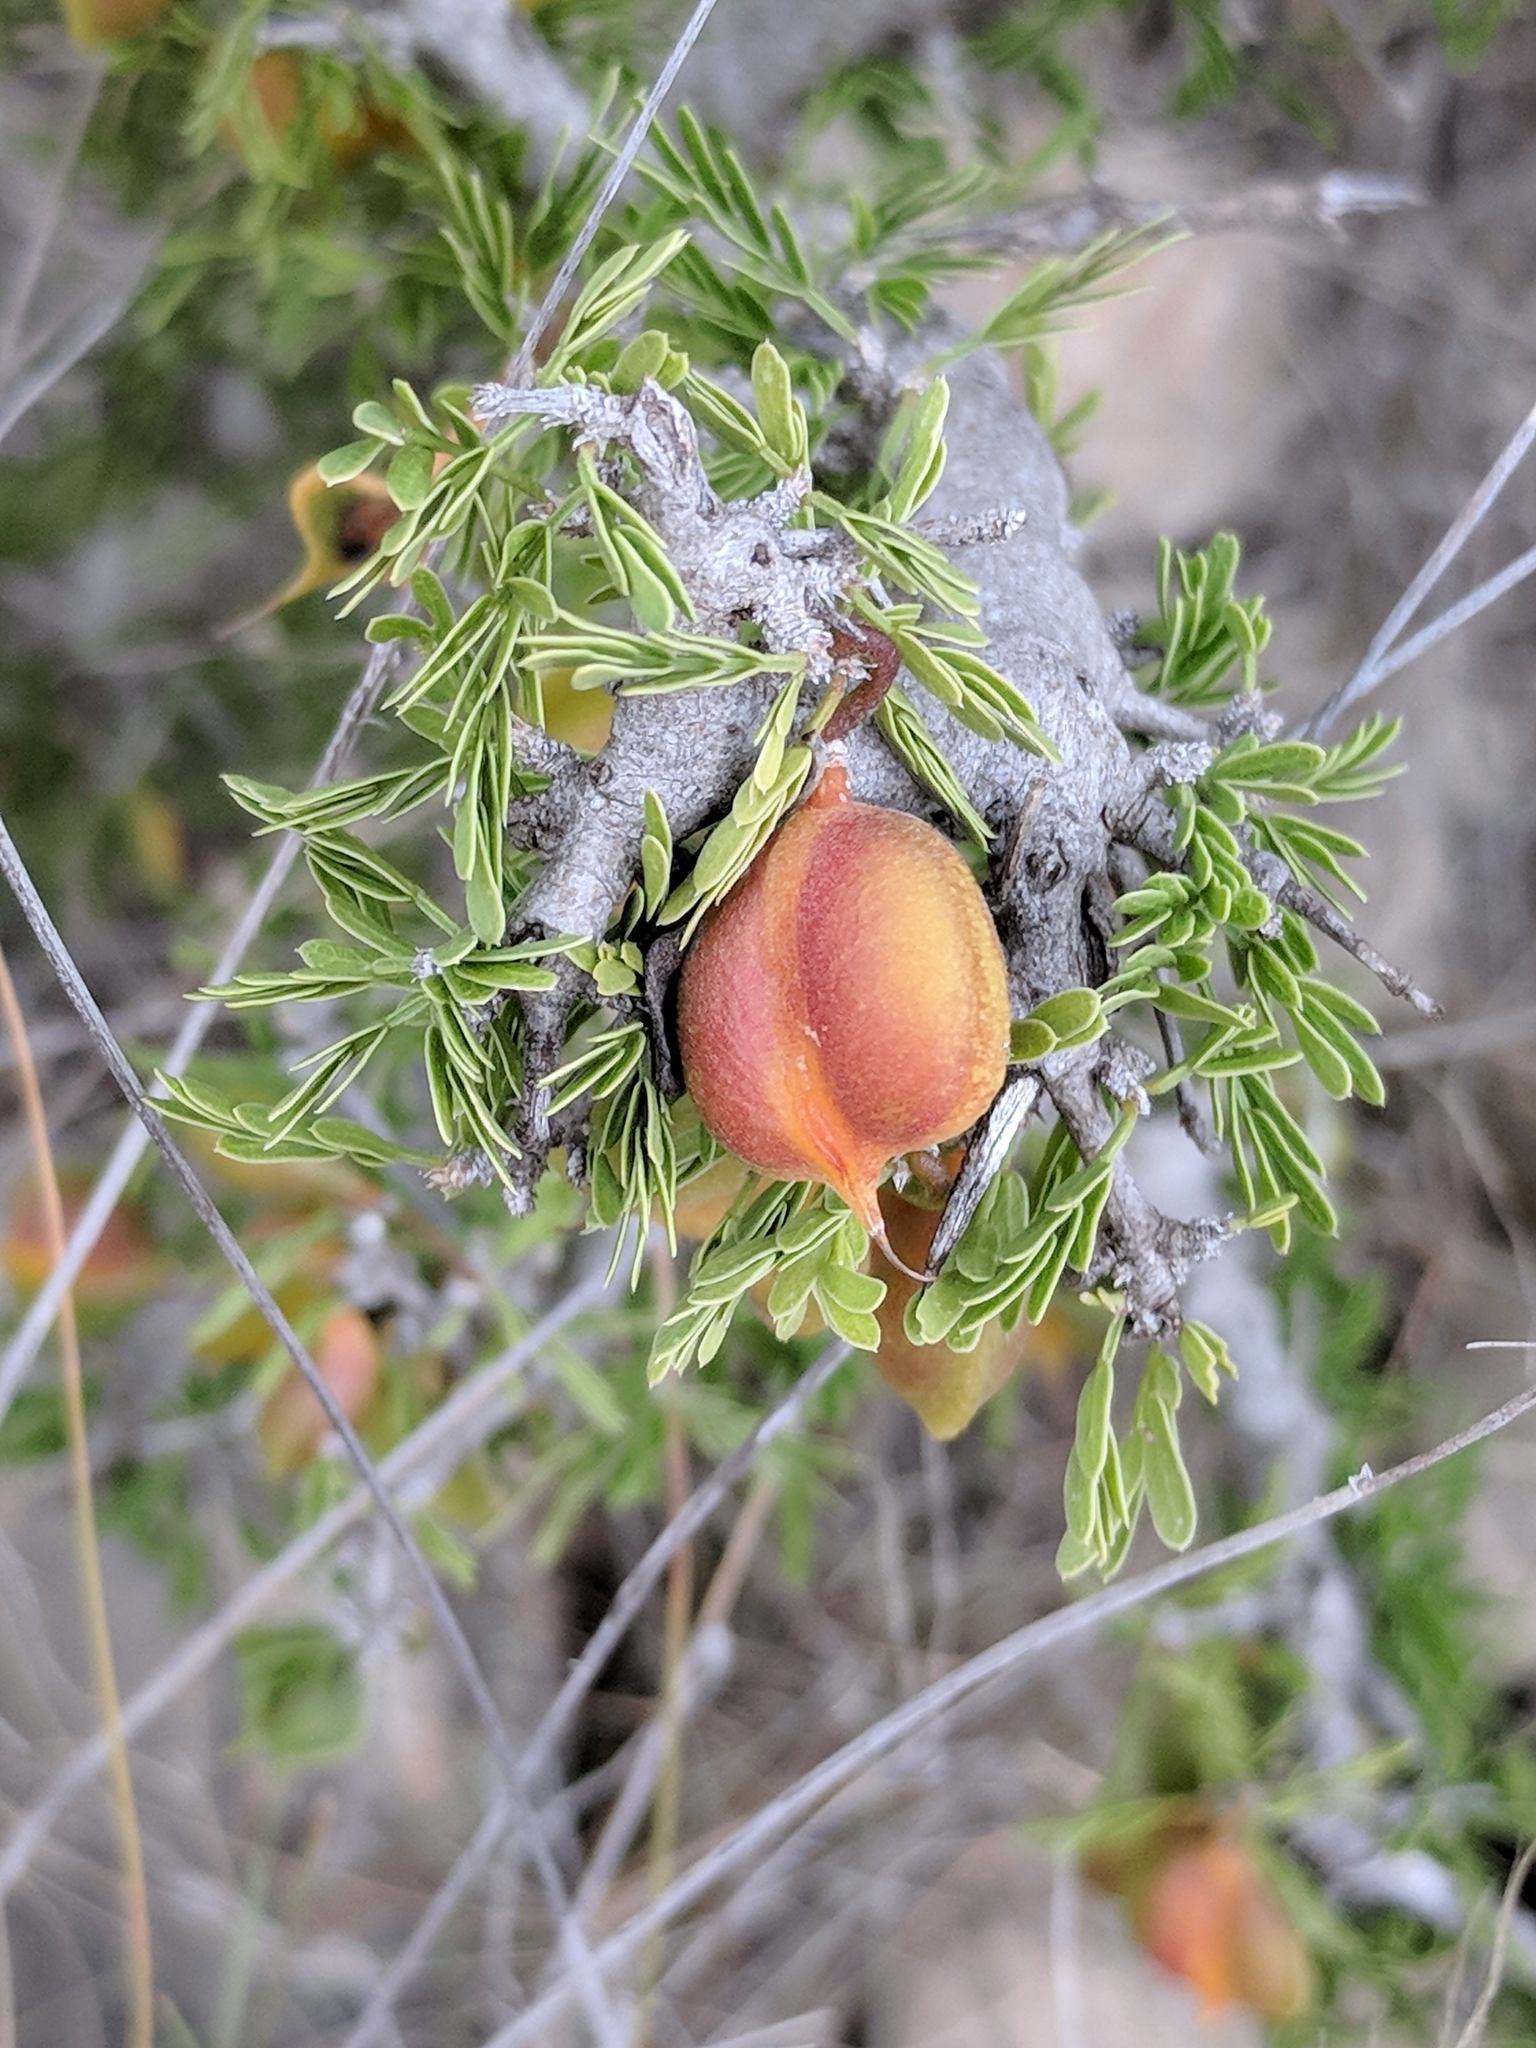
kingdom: Plantae
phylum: Tracheophyta
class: Magnoliopsida
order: Zygophyllales
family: Zygophyllaceae
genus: Porlieria
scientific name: Porlieria angustifolia
